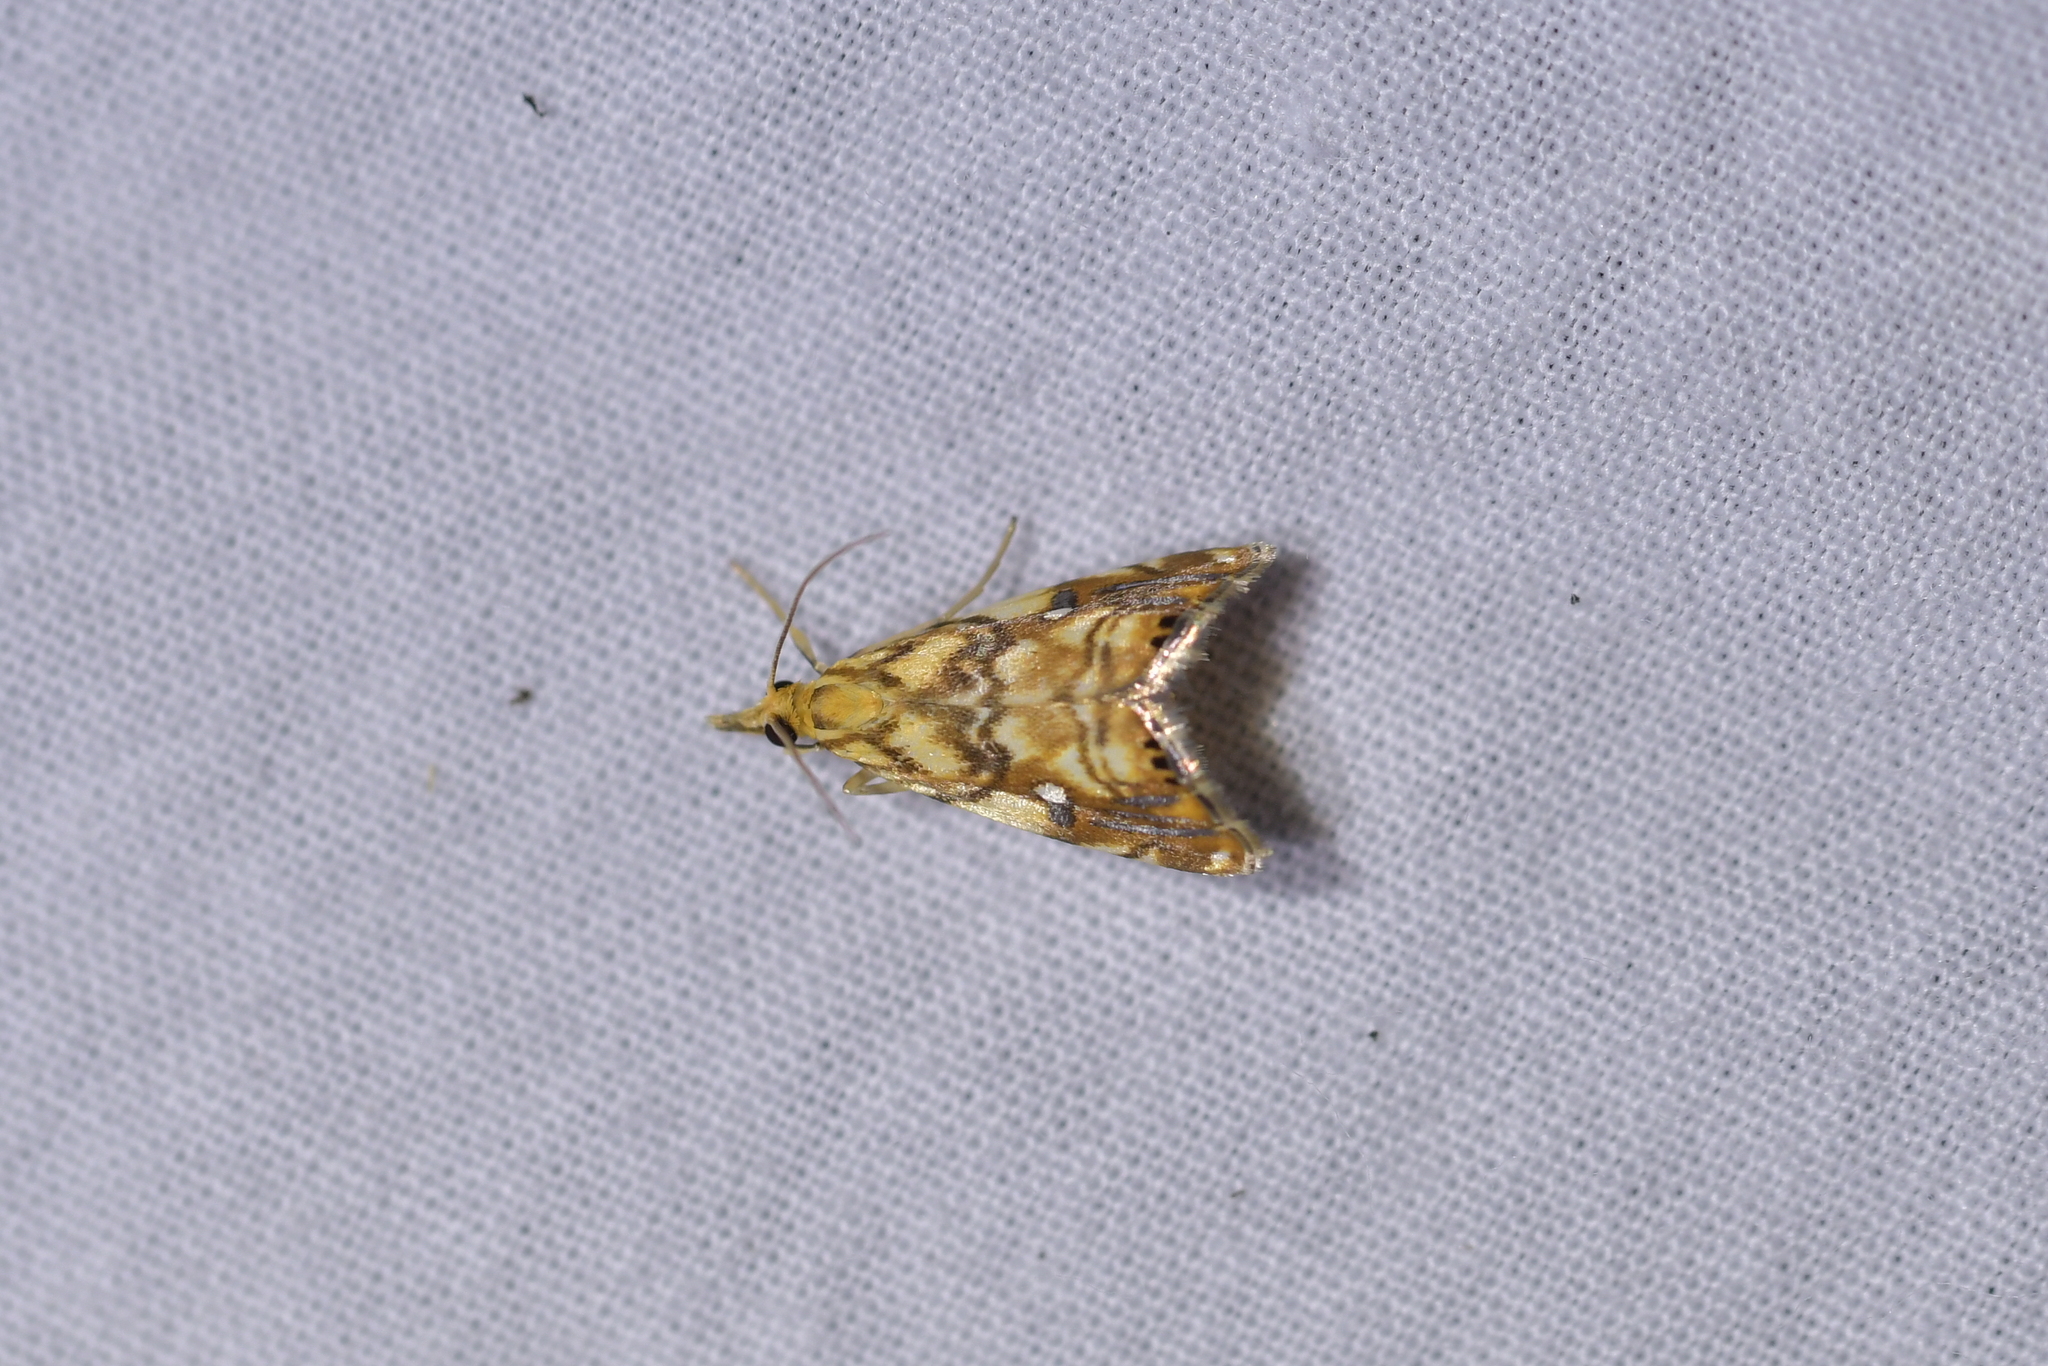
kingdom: Animalia
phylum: Arthropoda
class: Insecta
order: Lepidoptera
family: Crambidae
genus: Glaucocharis
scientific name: Glaucocharis selenaea
